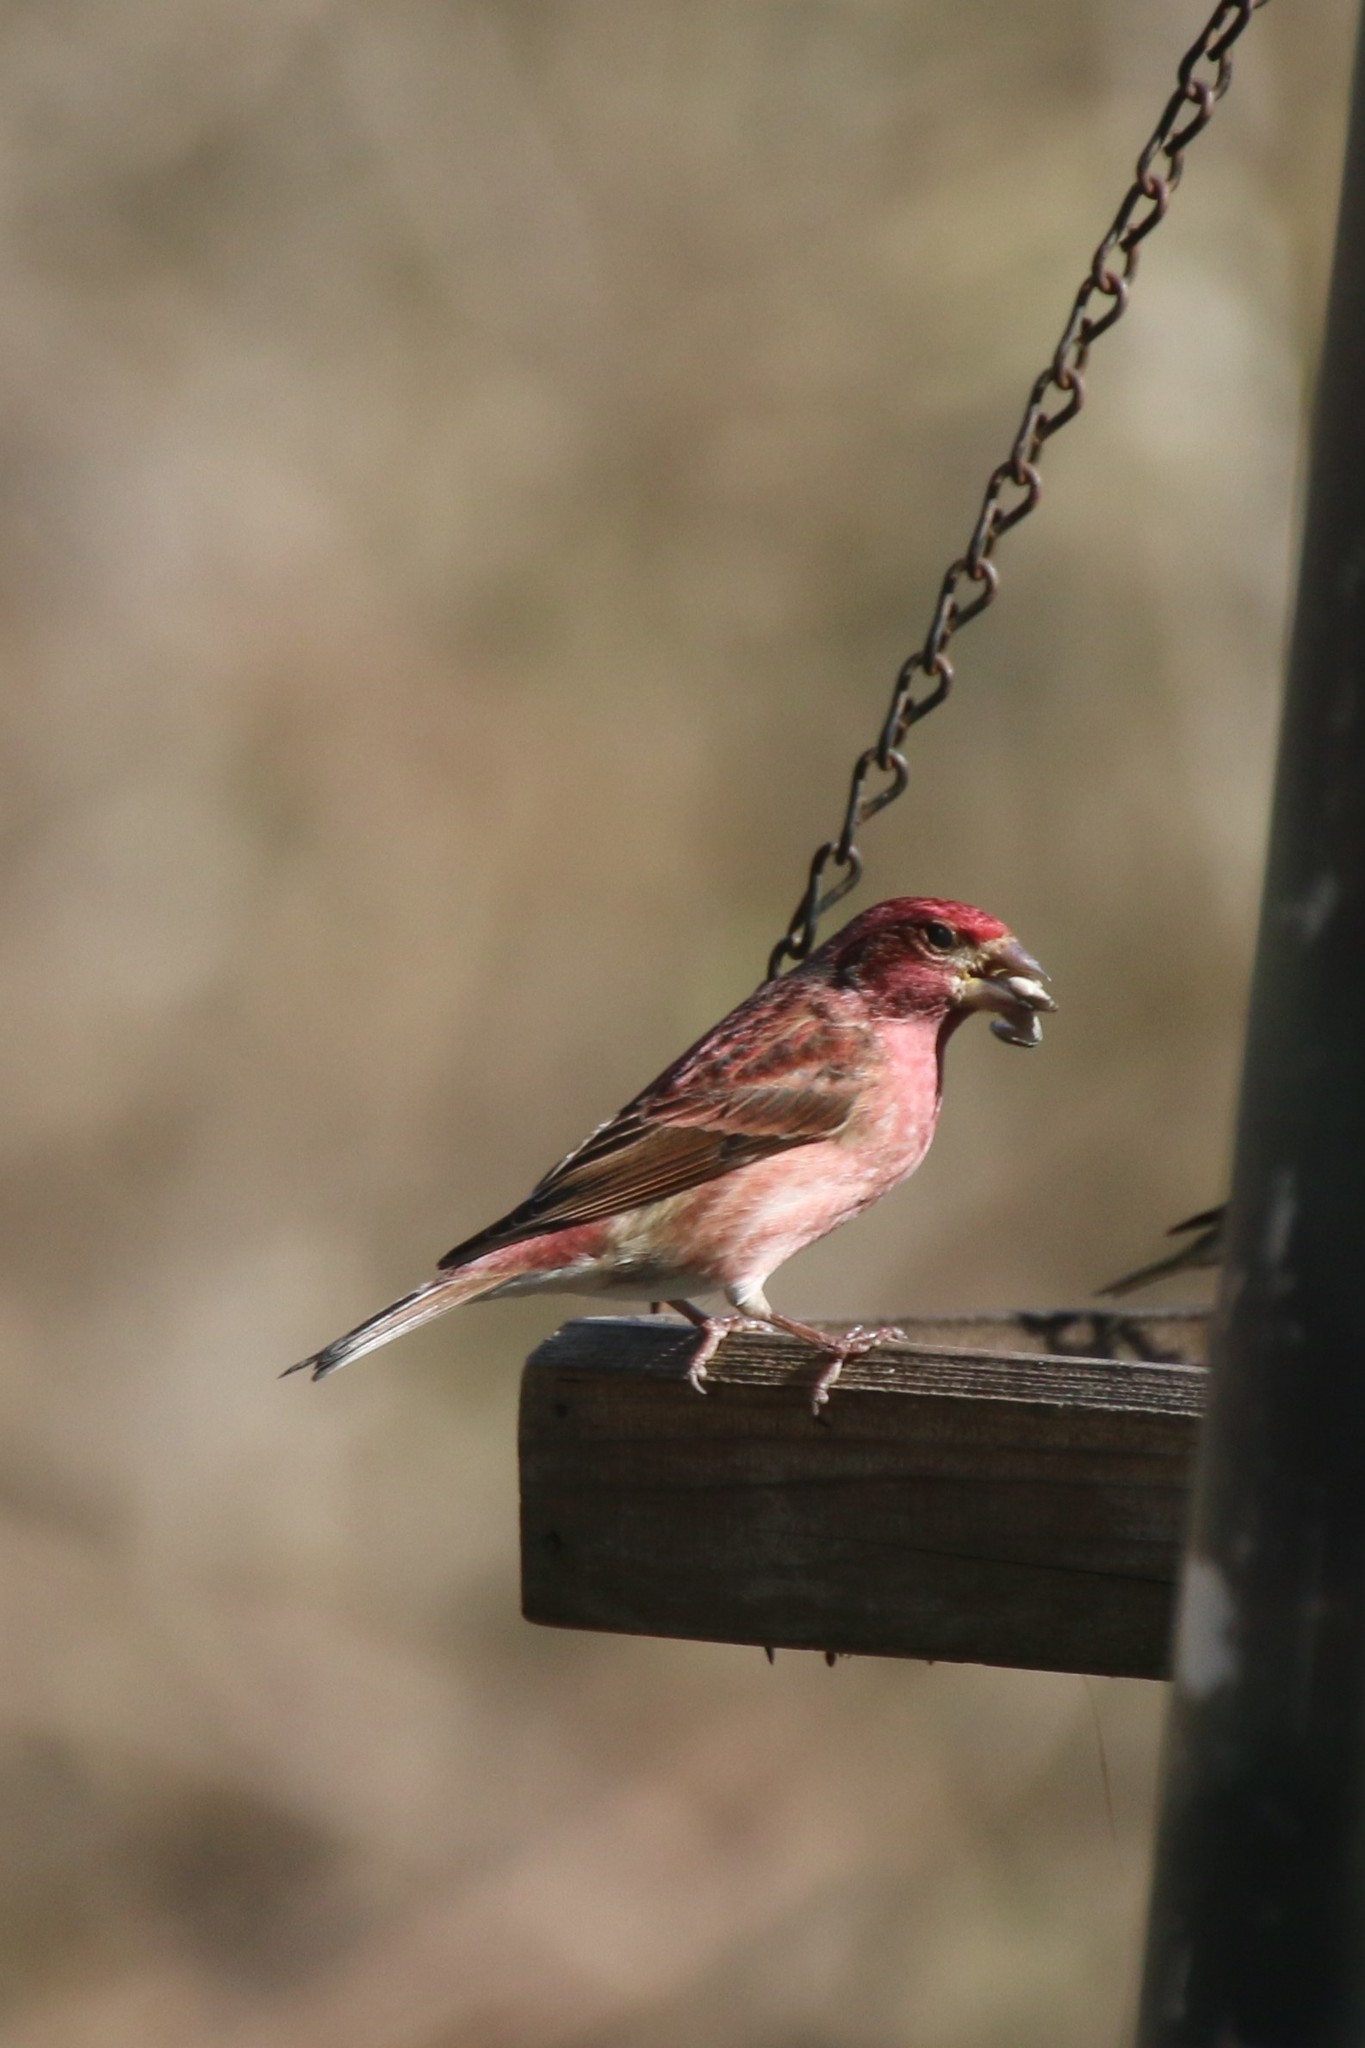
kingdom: Animalia
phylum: Chordata
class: Aves
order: Passeriformes
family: Fringillidae
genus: Haemorhous
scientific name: Haemorhous purpureus
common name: Purple finch
